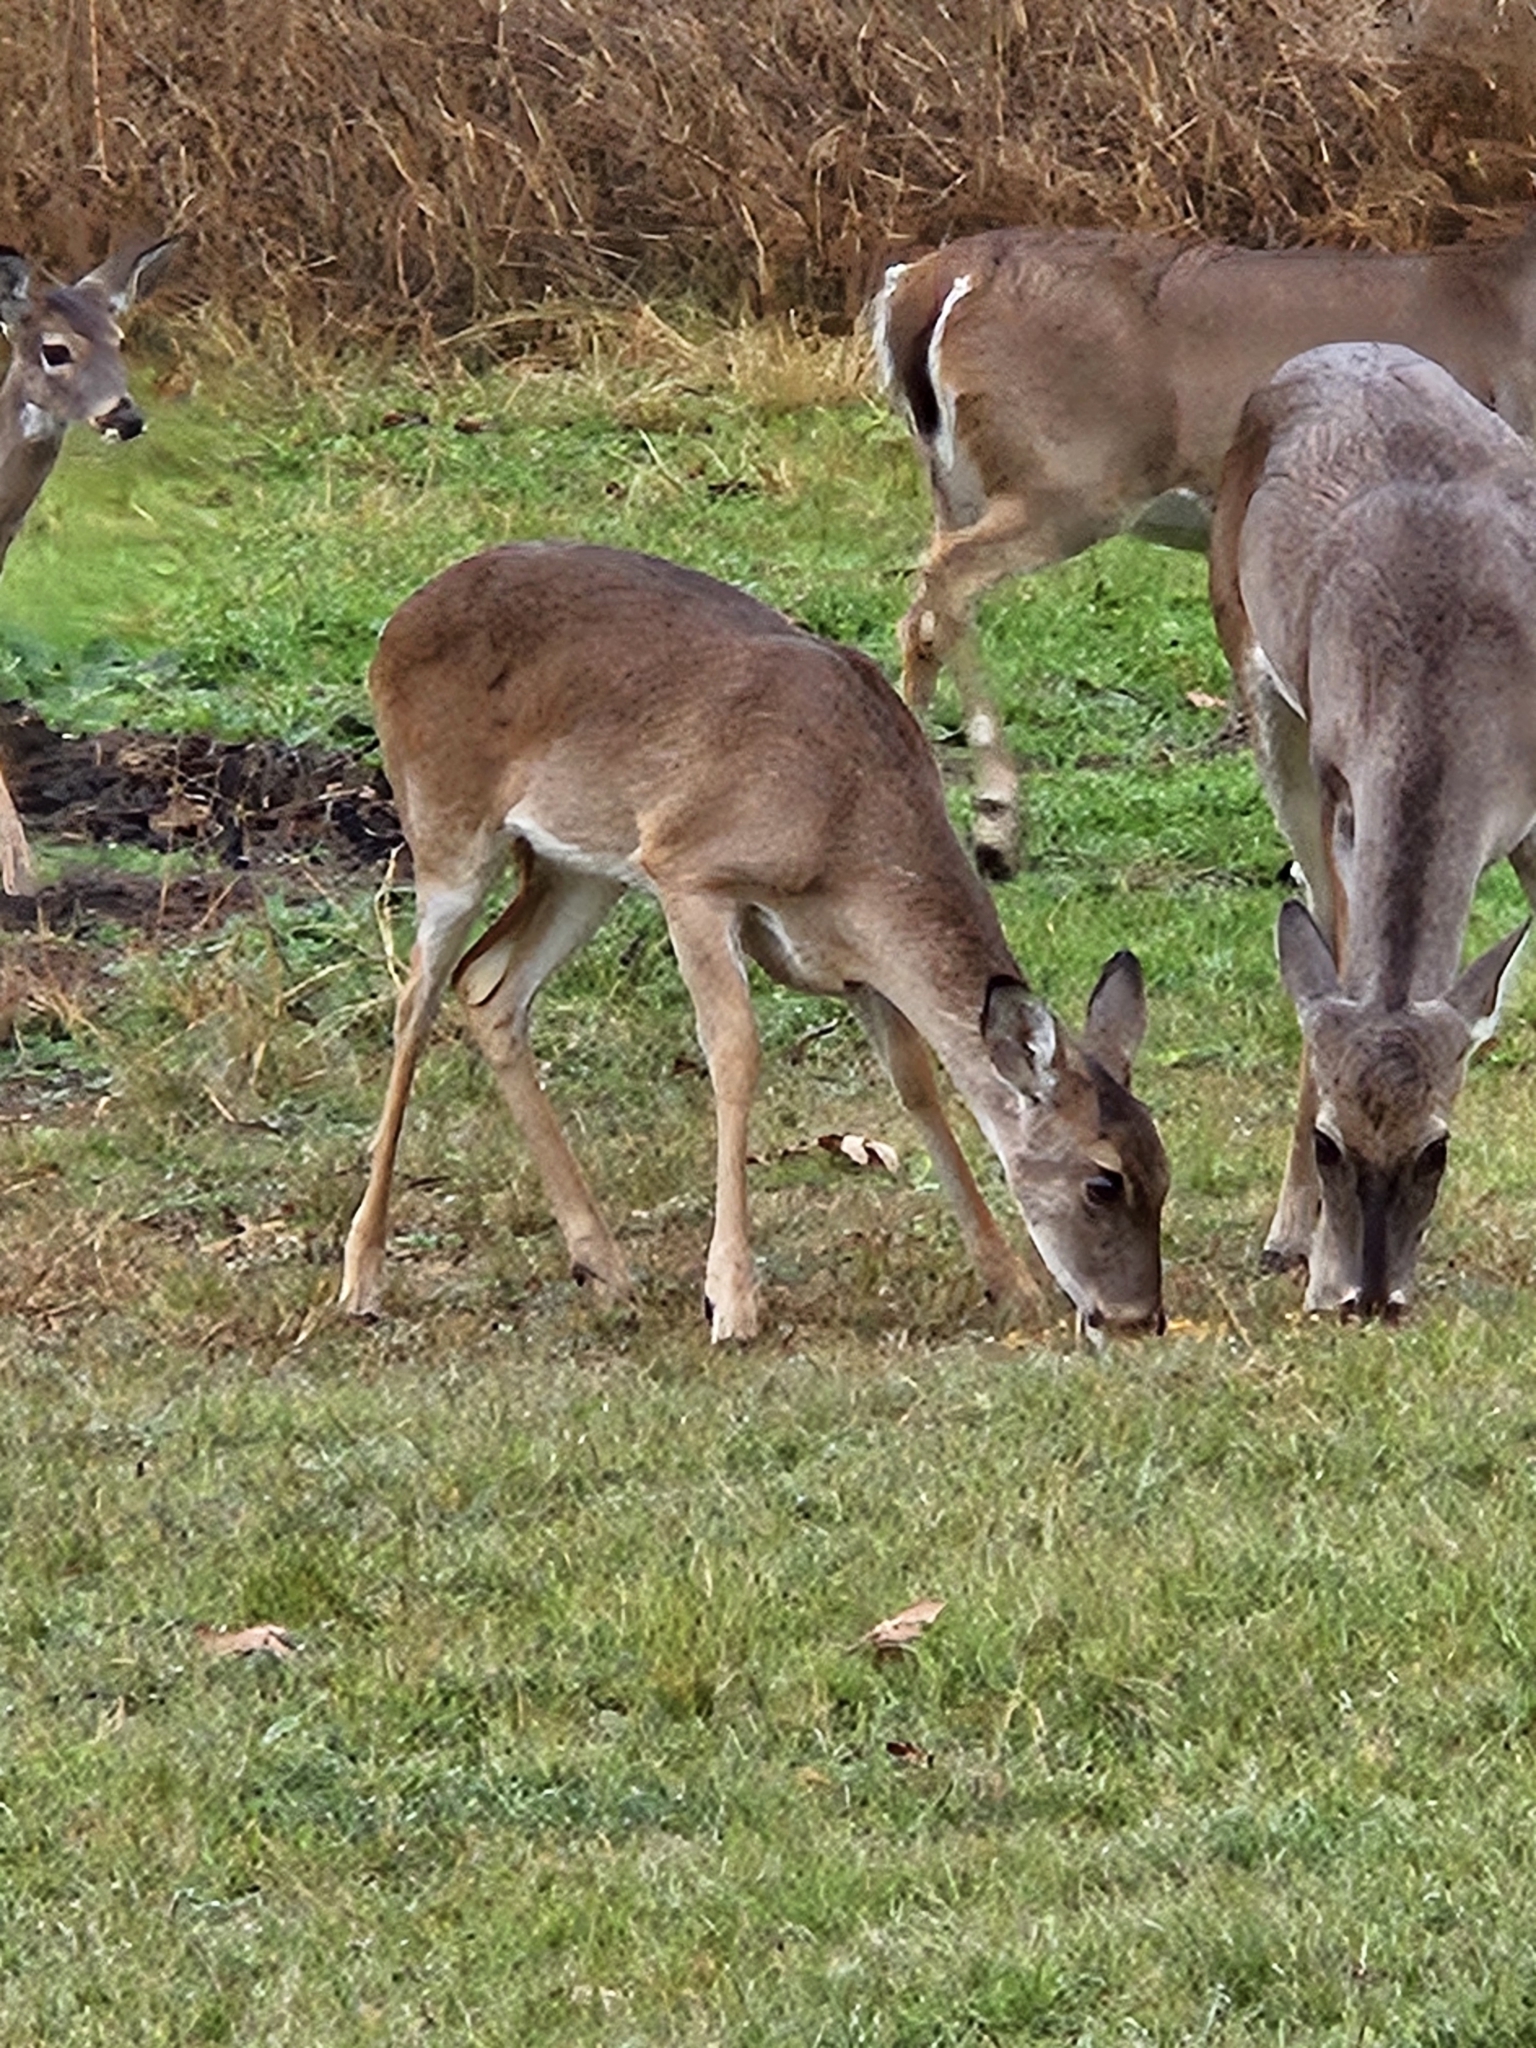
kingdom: Animalia
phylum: Chordata
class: Mammalia
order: Artiodactyla
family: Cervidae
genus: Odocoileus
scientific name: Odocoileus virginianus
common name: White-tailed deer
